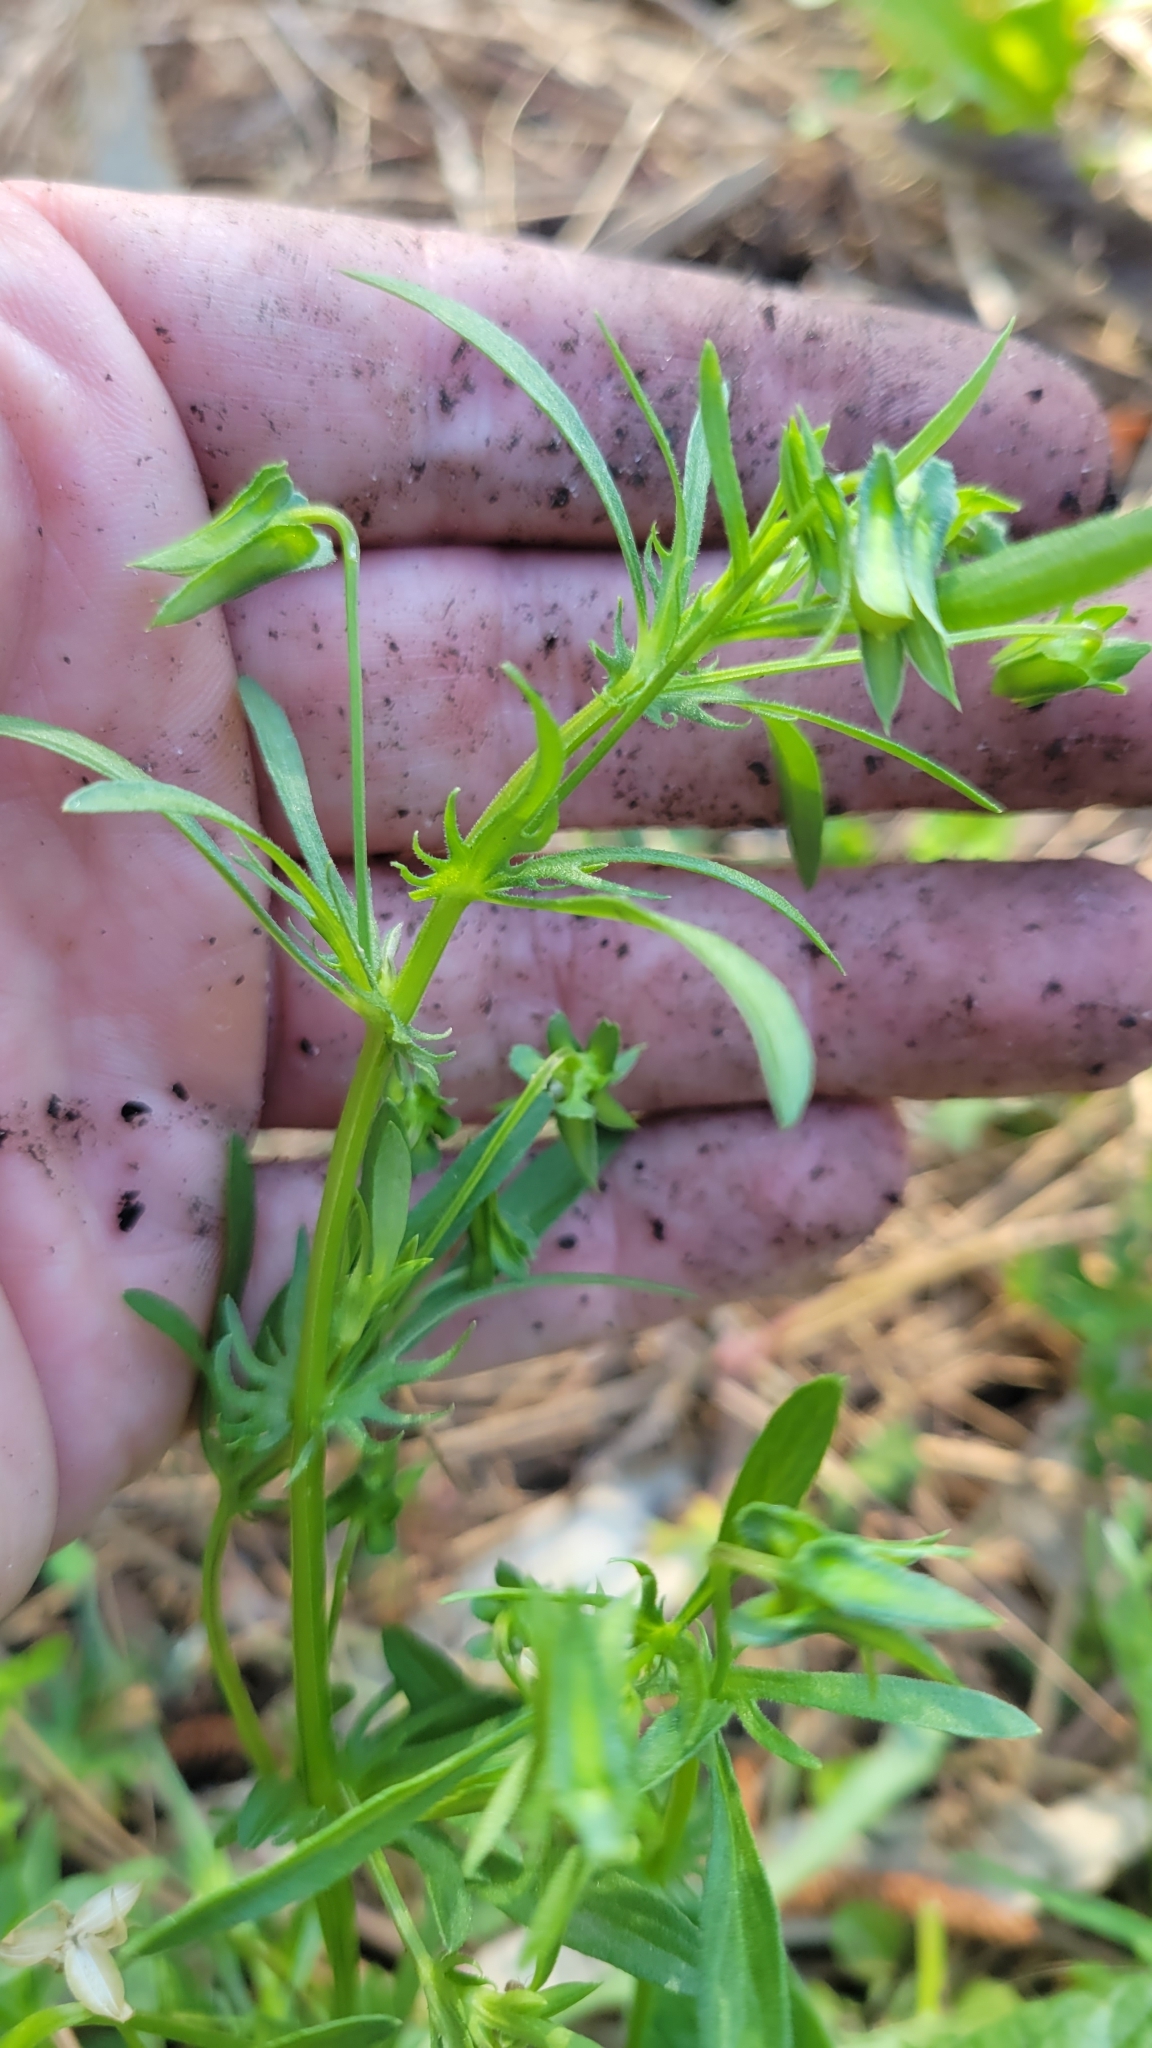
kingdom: Plantae
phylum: Tracheophyta
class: Magnoliopsida
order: Malpighiales
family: Violaceae
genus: Viola
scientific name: Viola rafinesquei
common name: American field pansy
